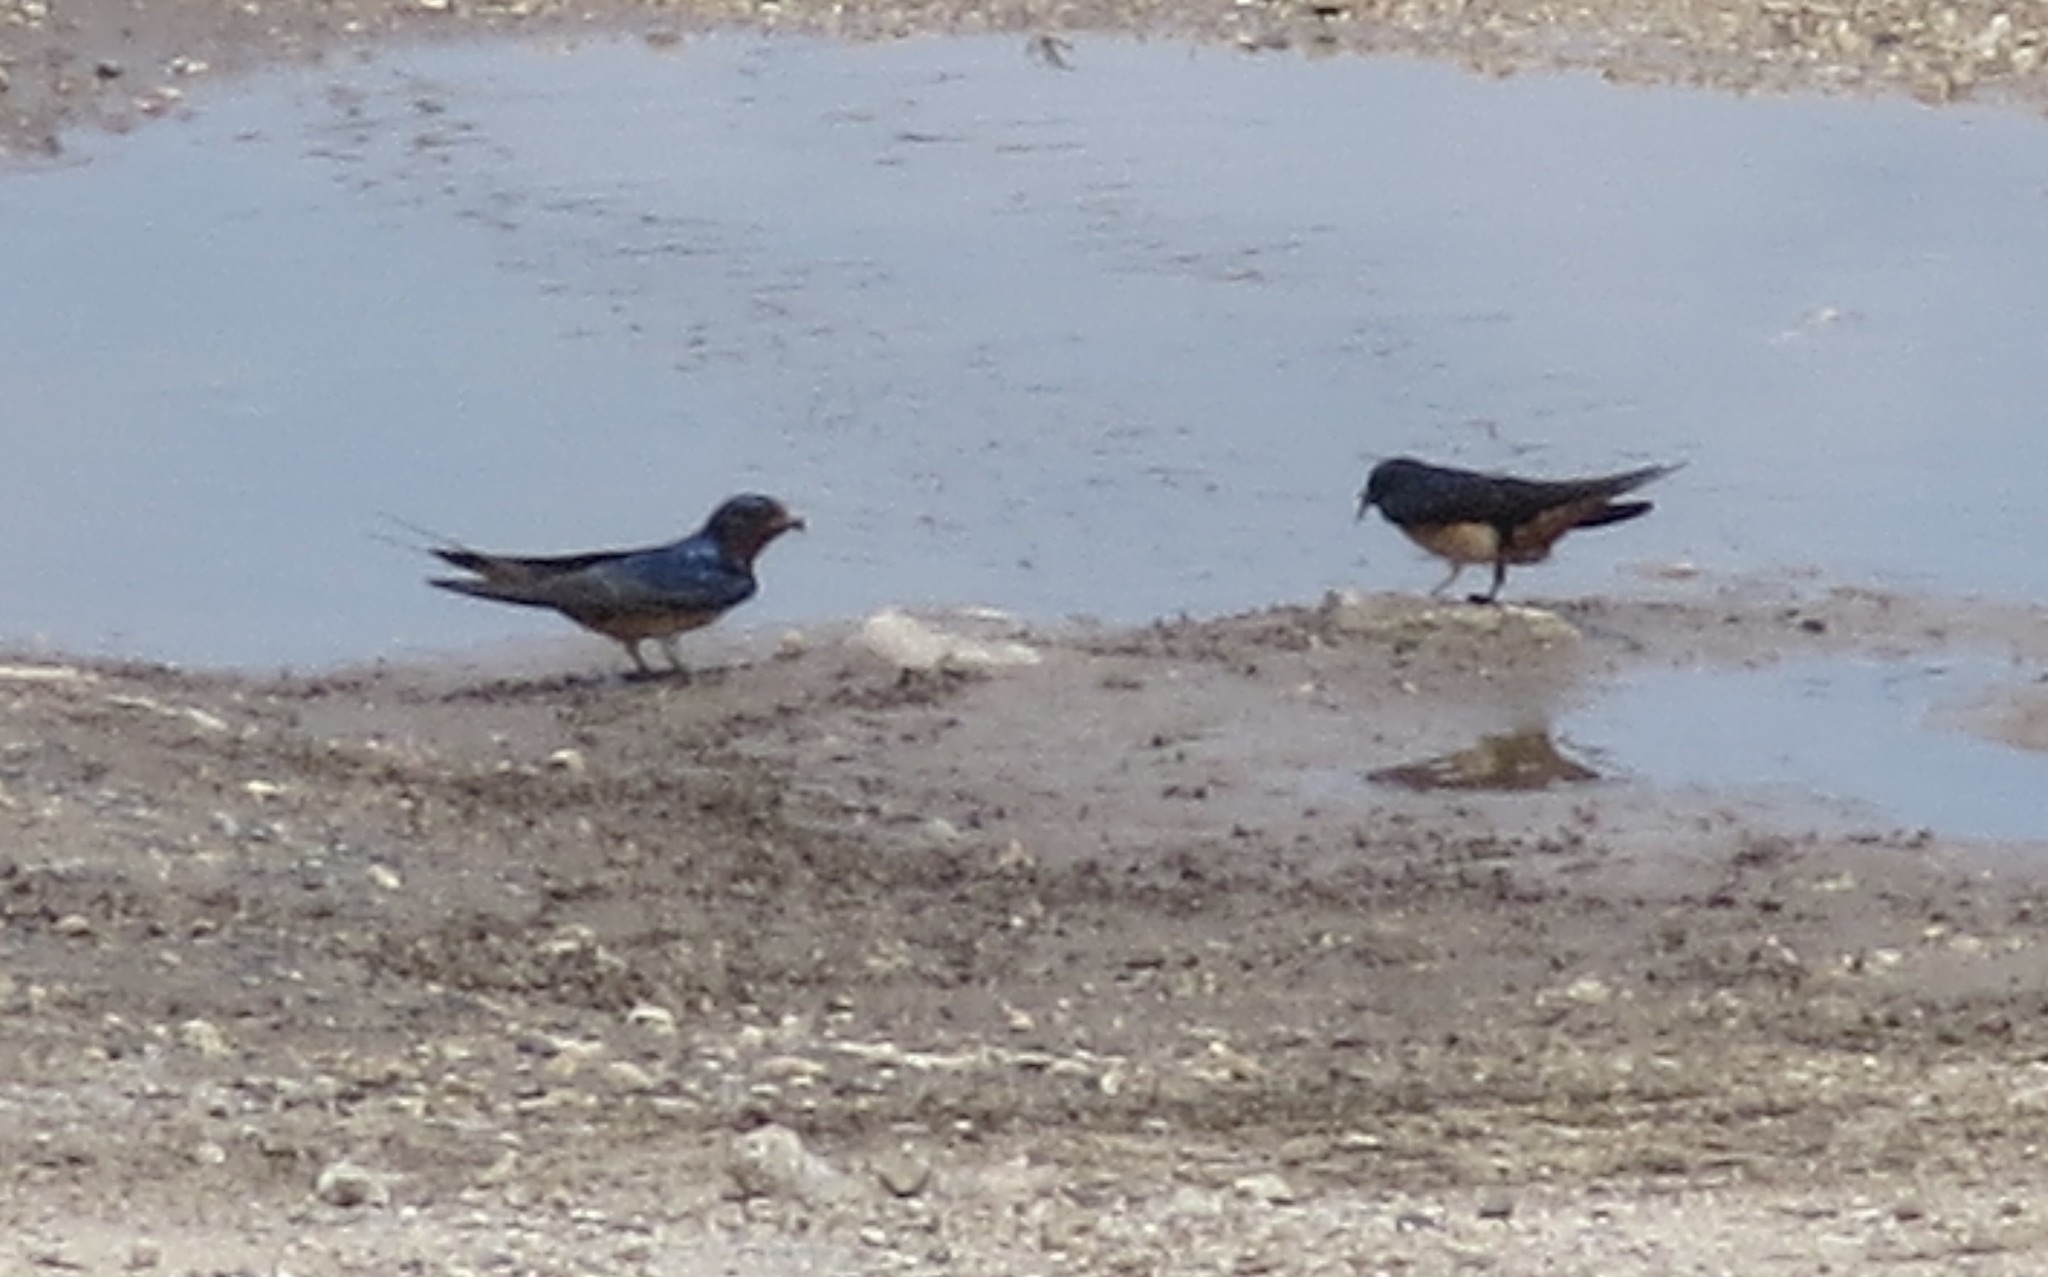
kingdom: Animalia
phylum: Chordata
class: Aves
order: Passeriformes
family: Hirundinidae
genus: Hirundo
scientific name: Hirundo rustica
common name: Barn swallow
